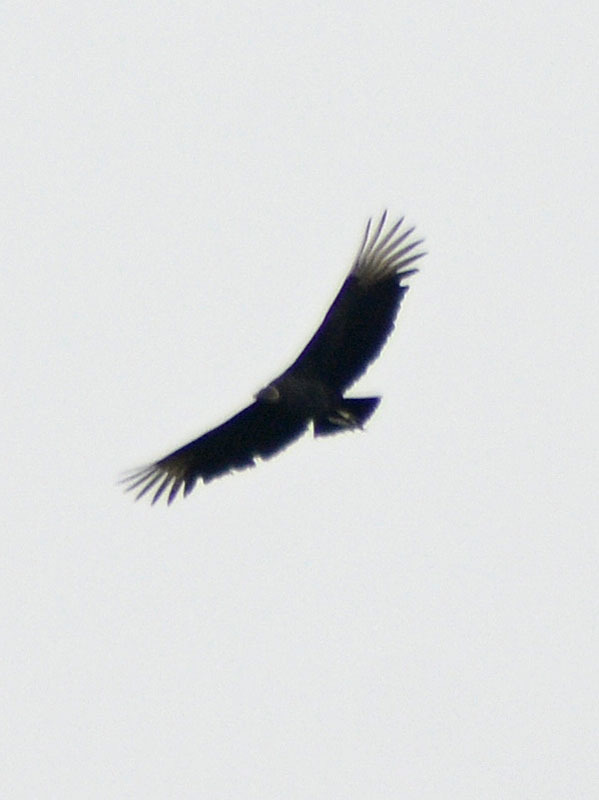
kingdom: Animalia
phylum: Chordata
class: Aves
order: Accipitriformes
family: Cathartidae
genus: Coragyps
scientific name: Coragyps atratus
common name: Black vulture
